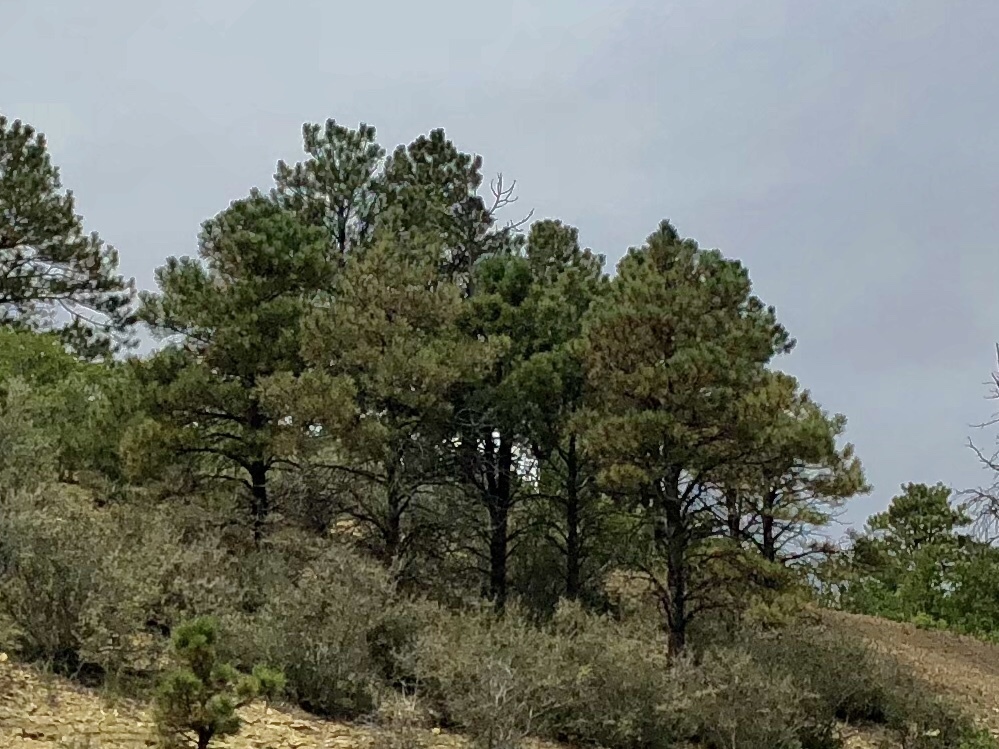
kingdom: Plantae
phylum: Tracheophyta
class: Pinopsida
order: Pinales
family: Pinaceae
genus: Pinus
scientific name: Pinus ponderosa
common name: Western yellow-pine
